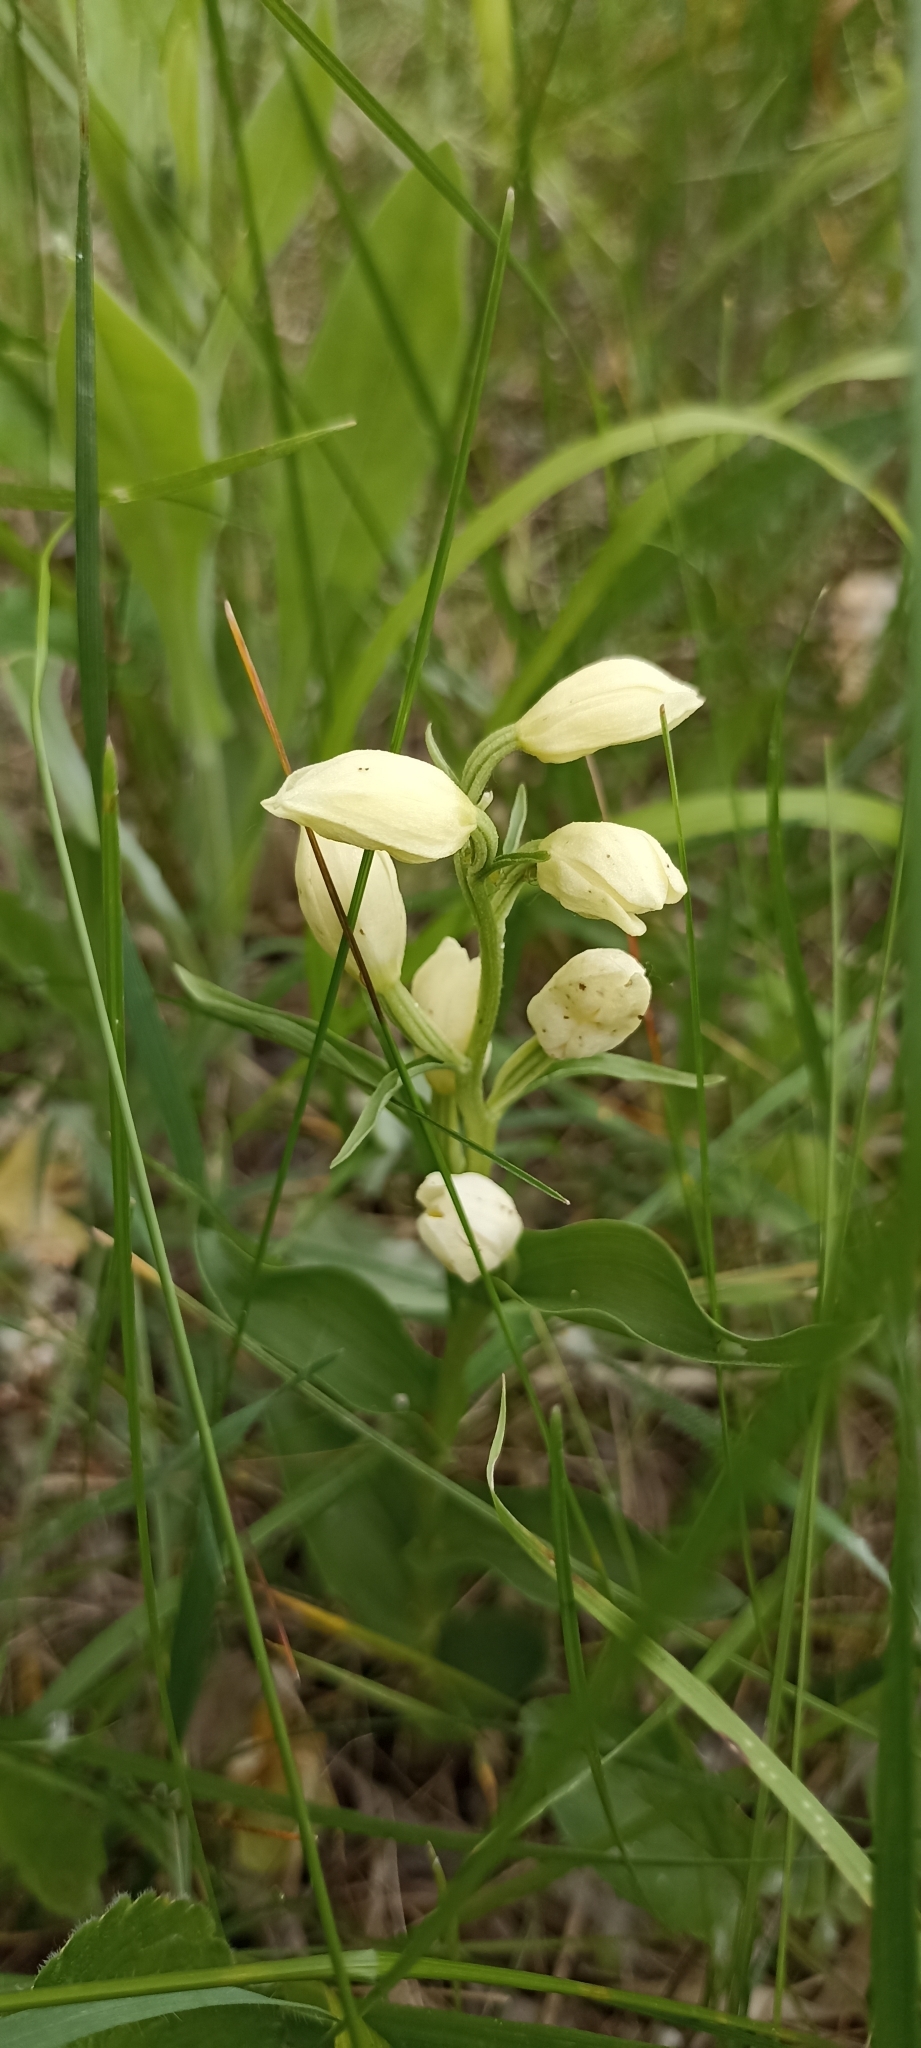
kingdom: Plantae
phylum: Tracheophyta
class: Liliopsida
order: Asparagales
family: Orchidaceae
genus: Cephalanthera
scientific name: Cephalanthera damasonium
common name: White helleborine
